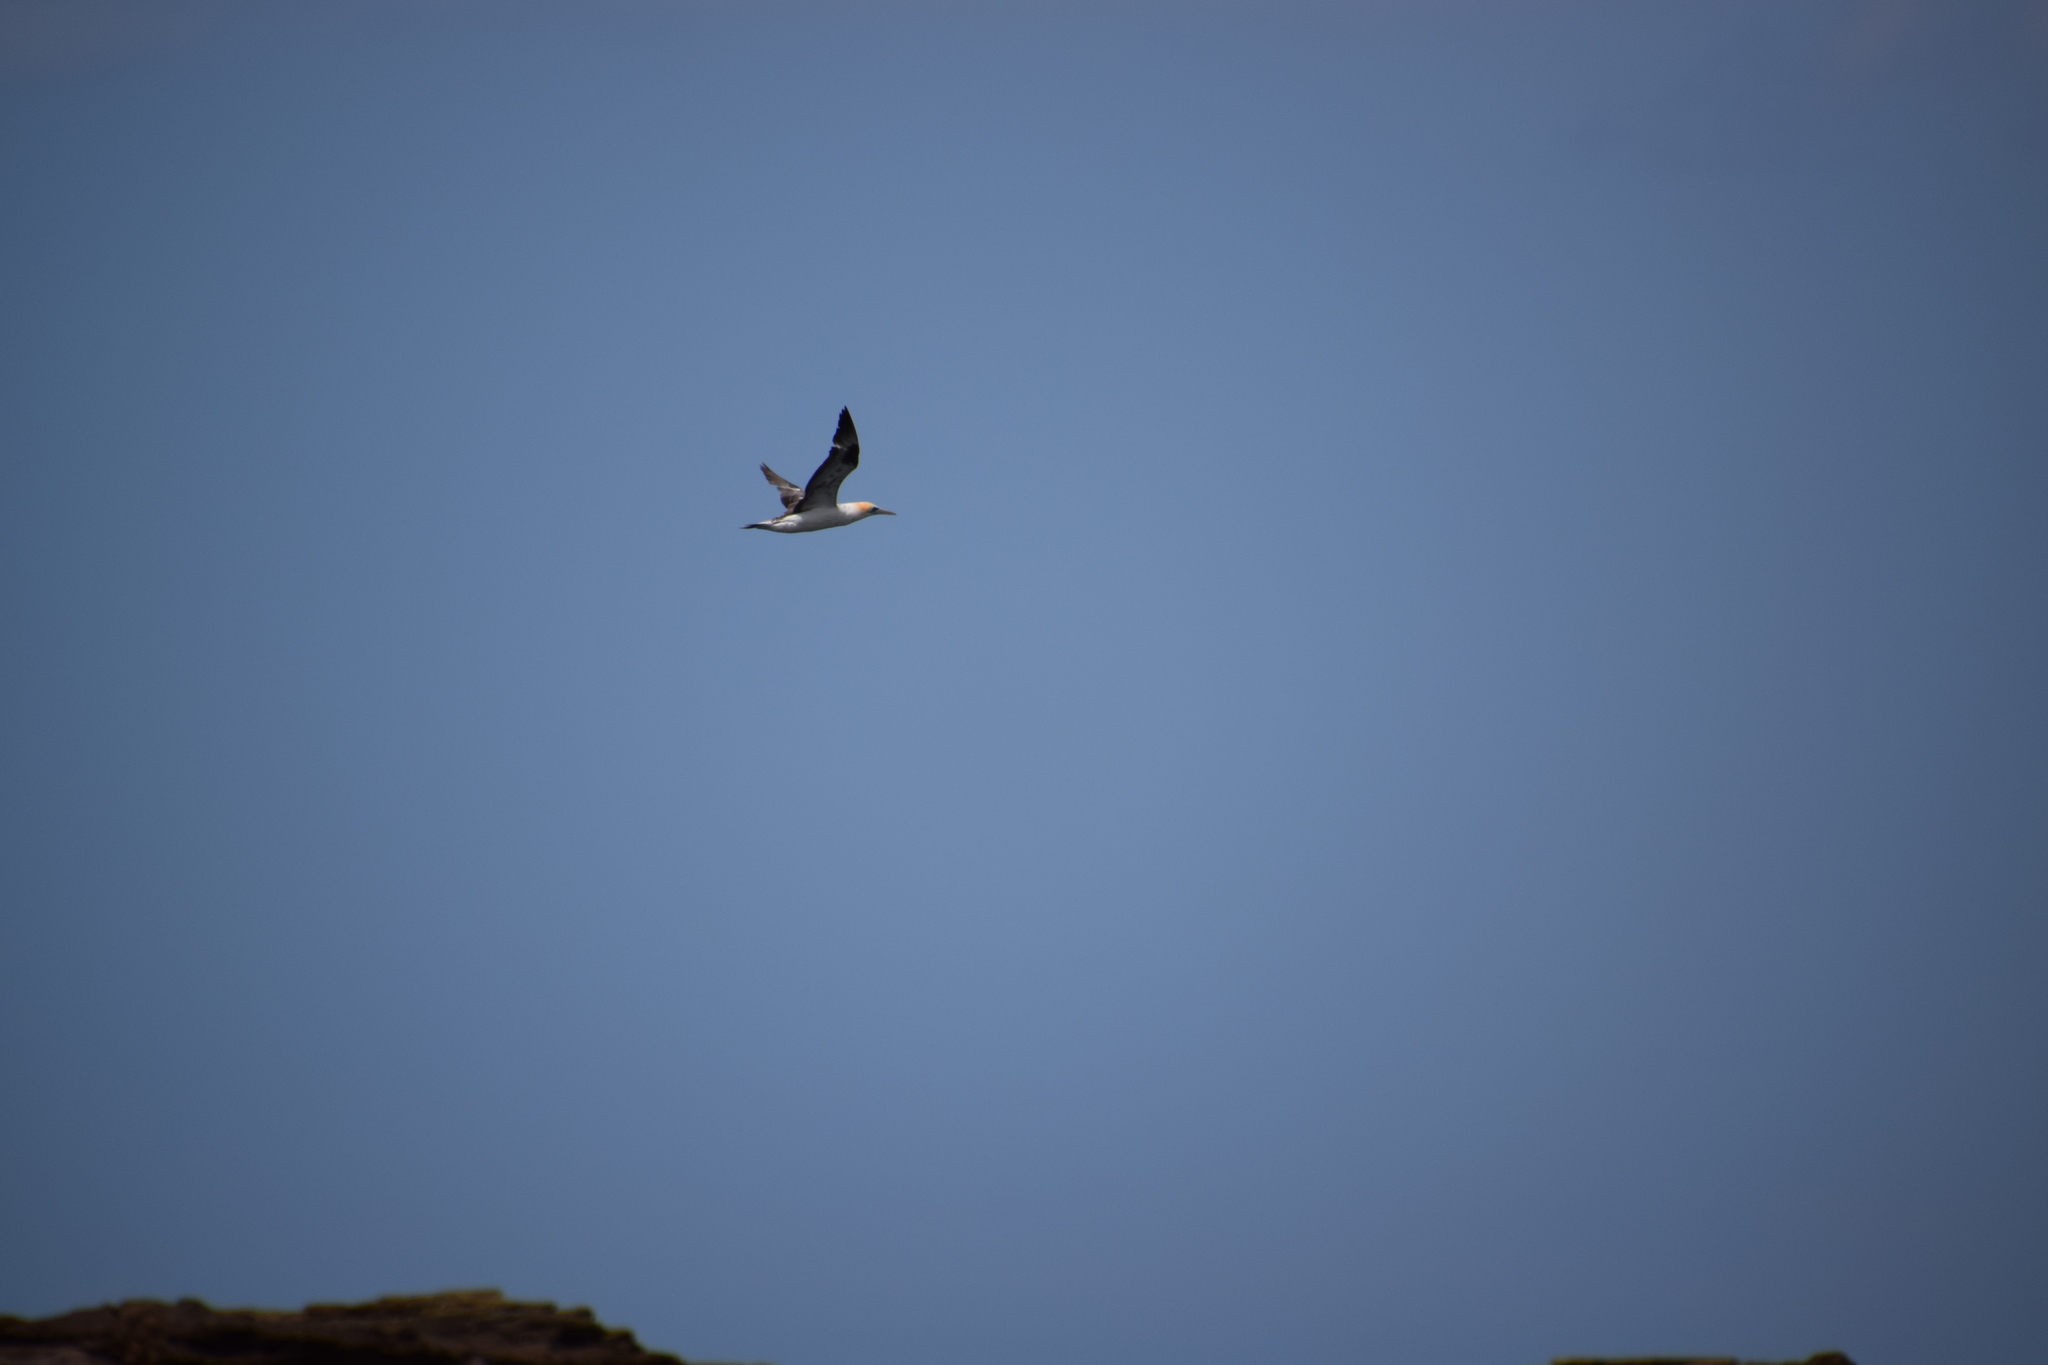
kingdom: Animalia
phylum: Chordata
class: Aves
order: Suliformes
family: Sulidae
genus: Morus
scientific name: Morus serrator
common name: Australasian gannet
